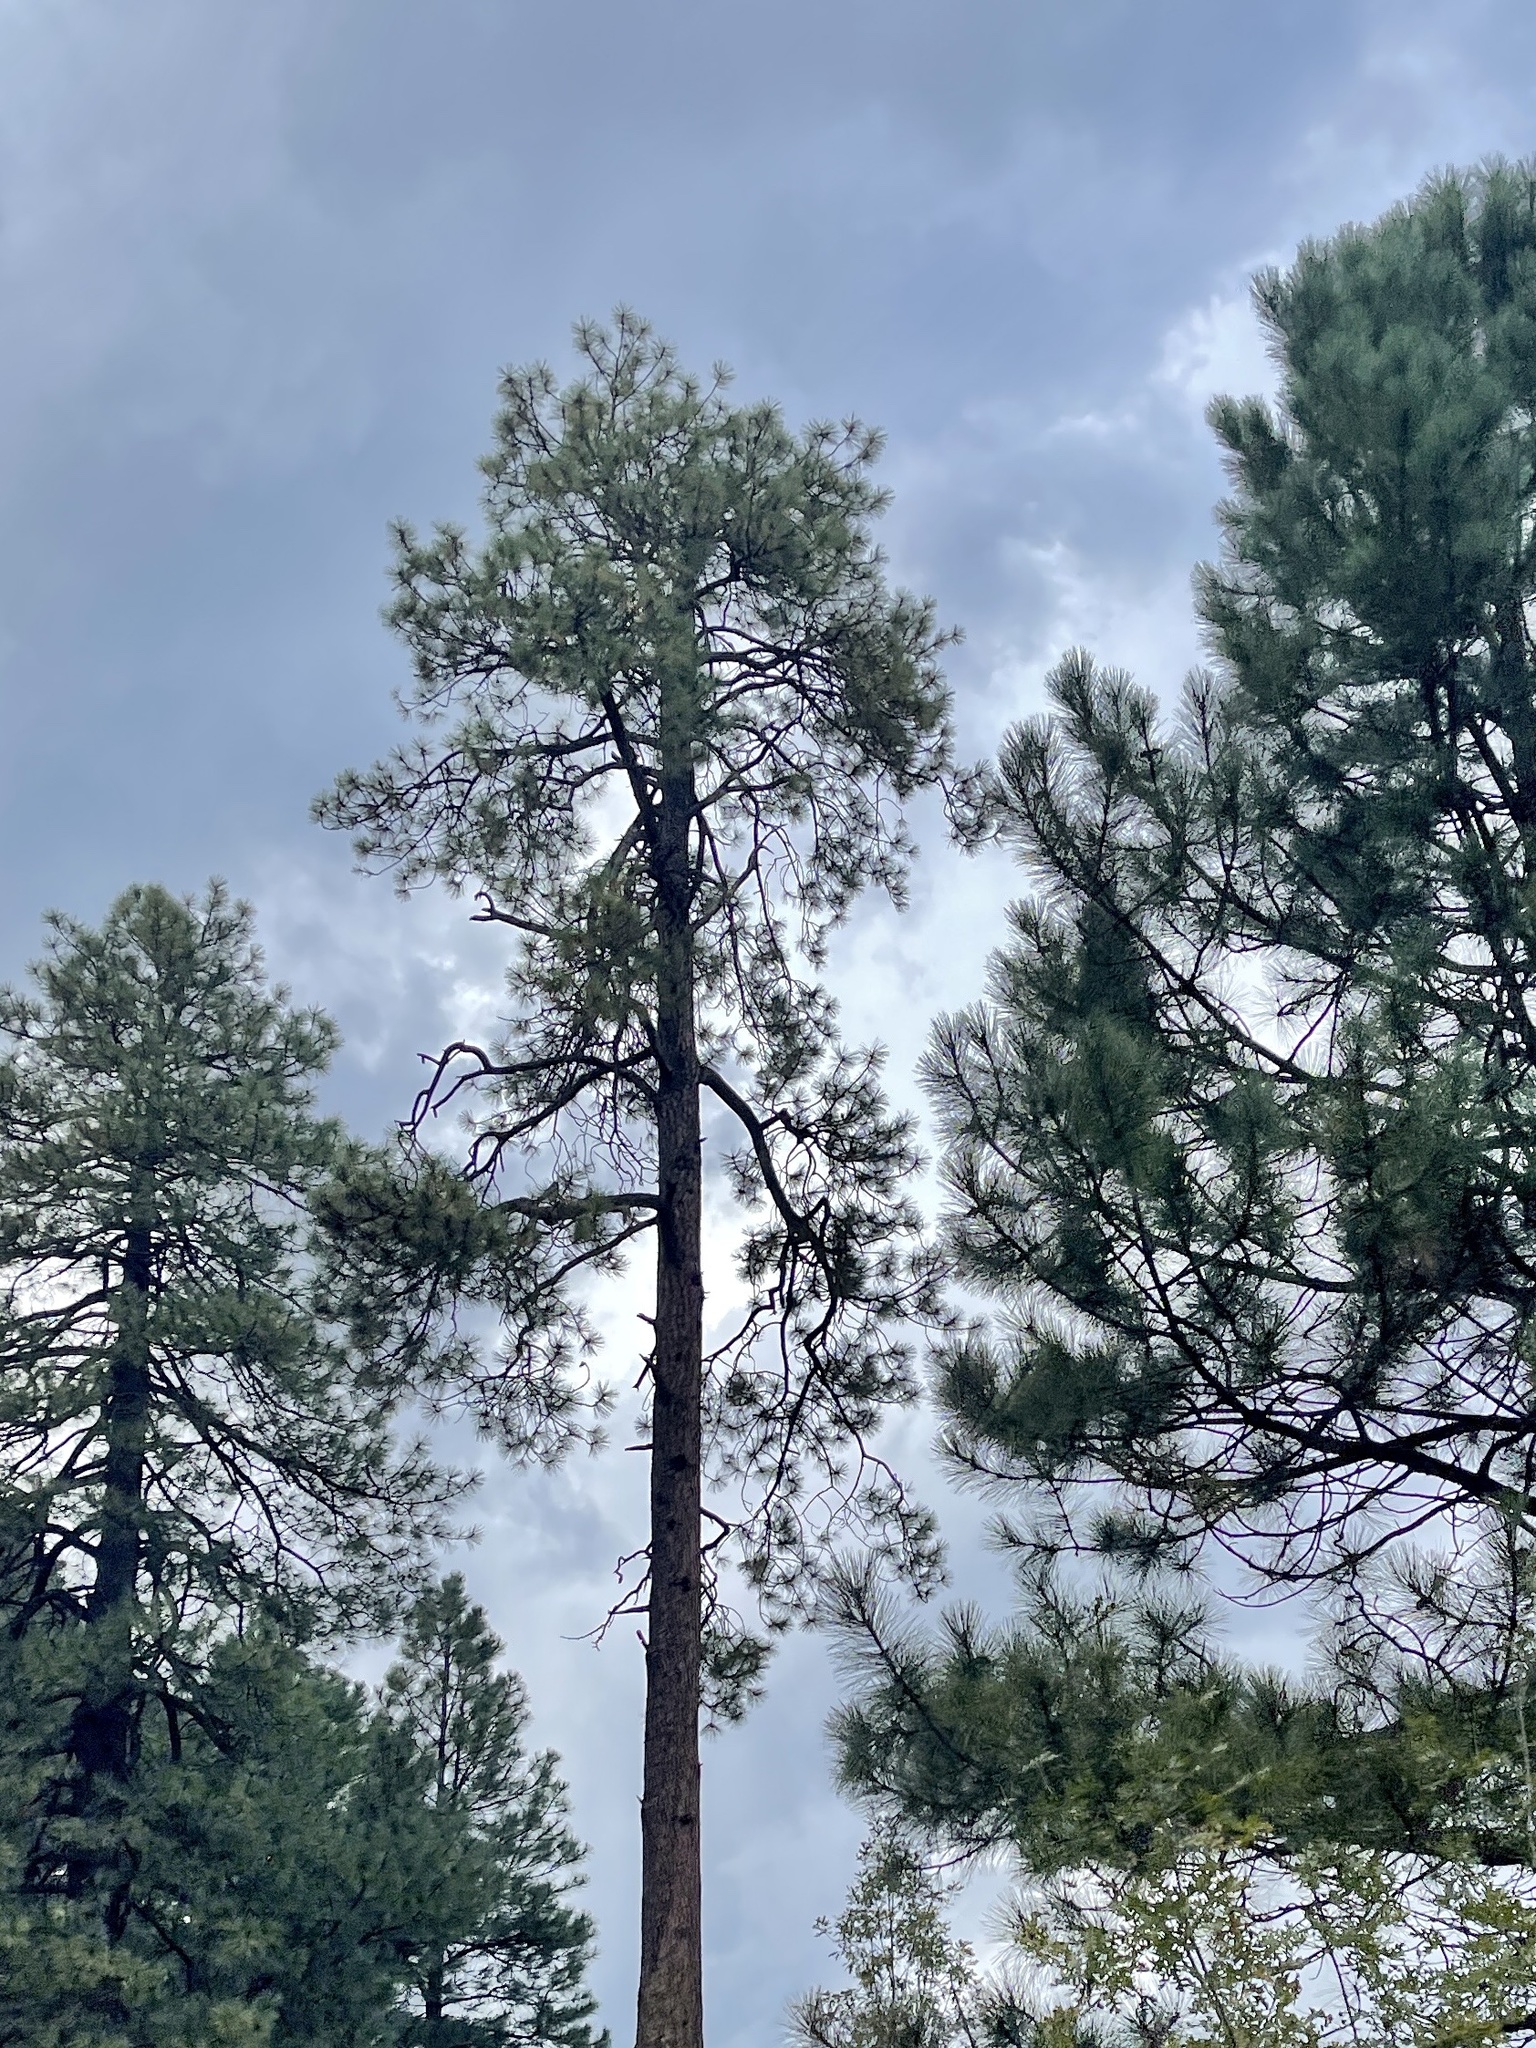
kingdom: Plantae
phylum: Tracheophyta
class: Pinopsida
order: Pinales
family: Pinaceae
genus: Pinus
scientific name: Pinus ponderosa
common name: Western yellow-pine
